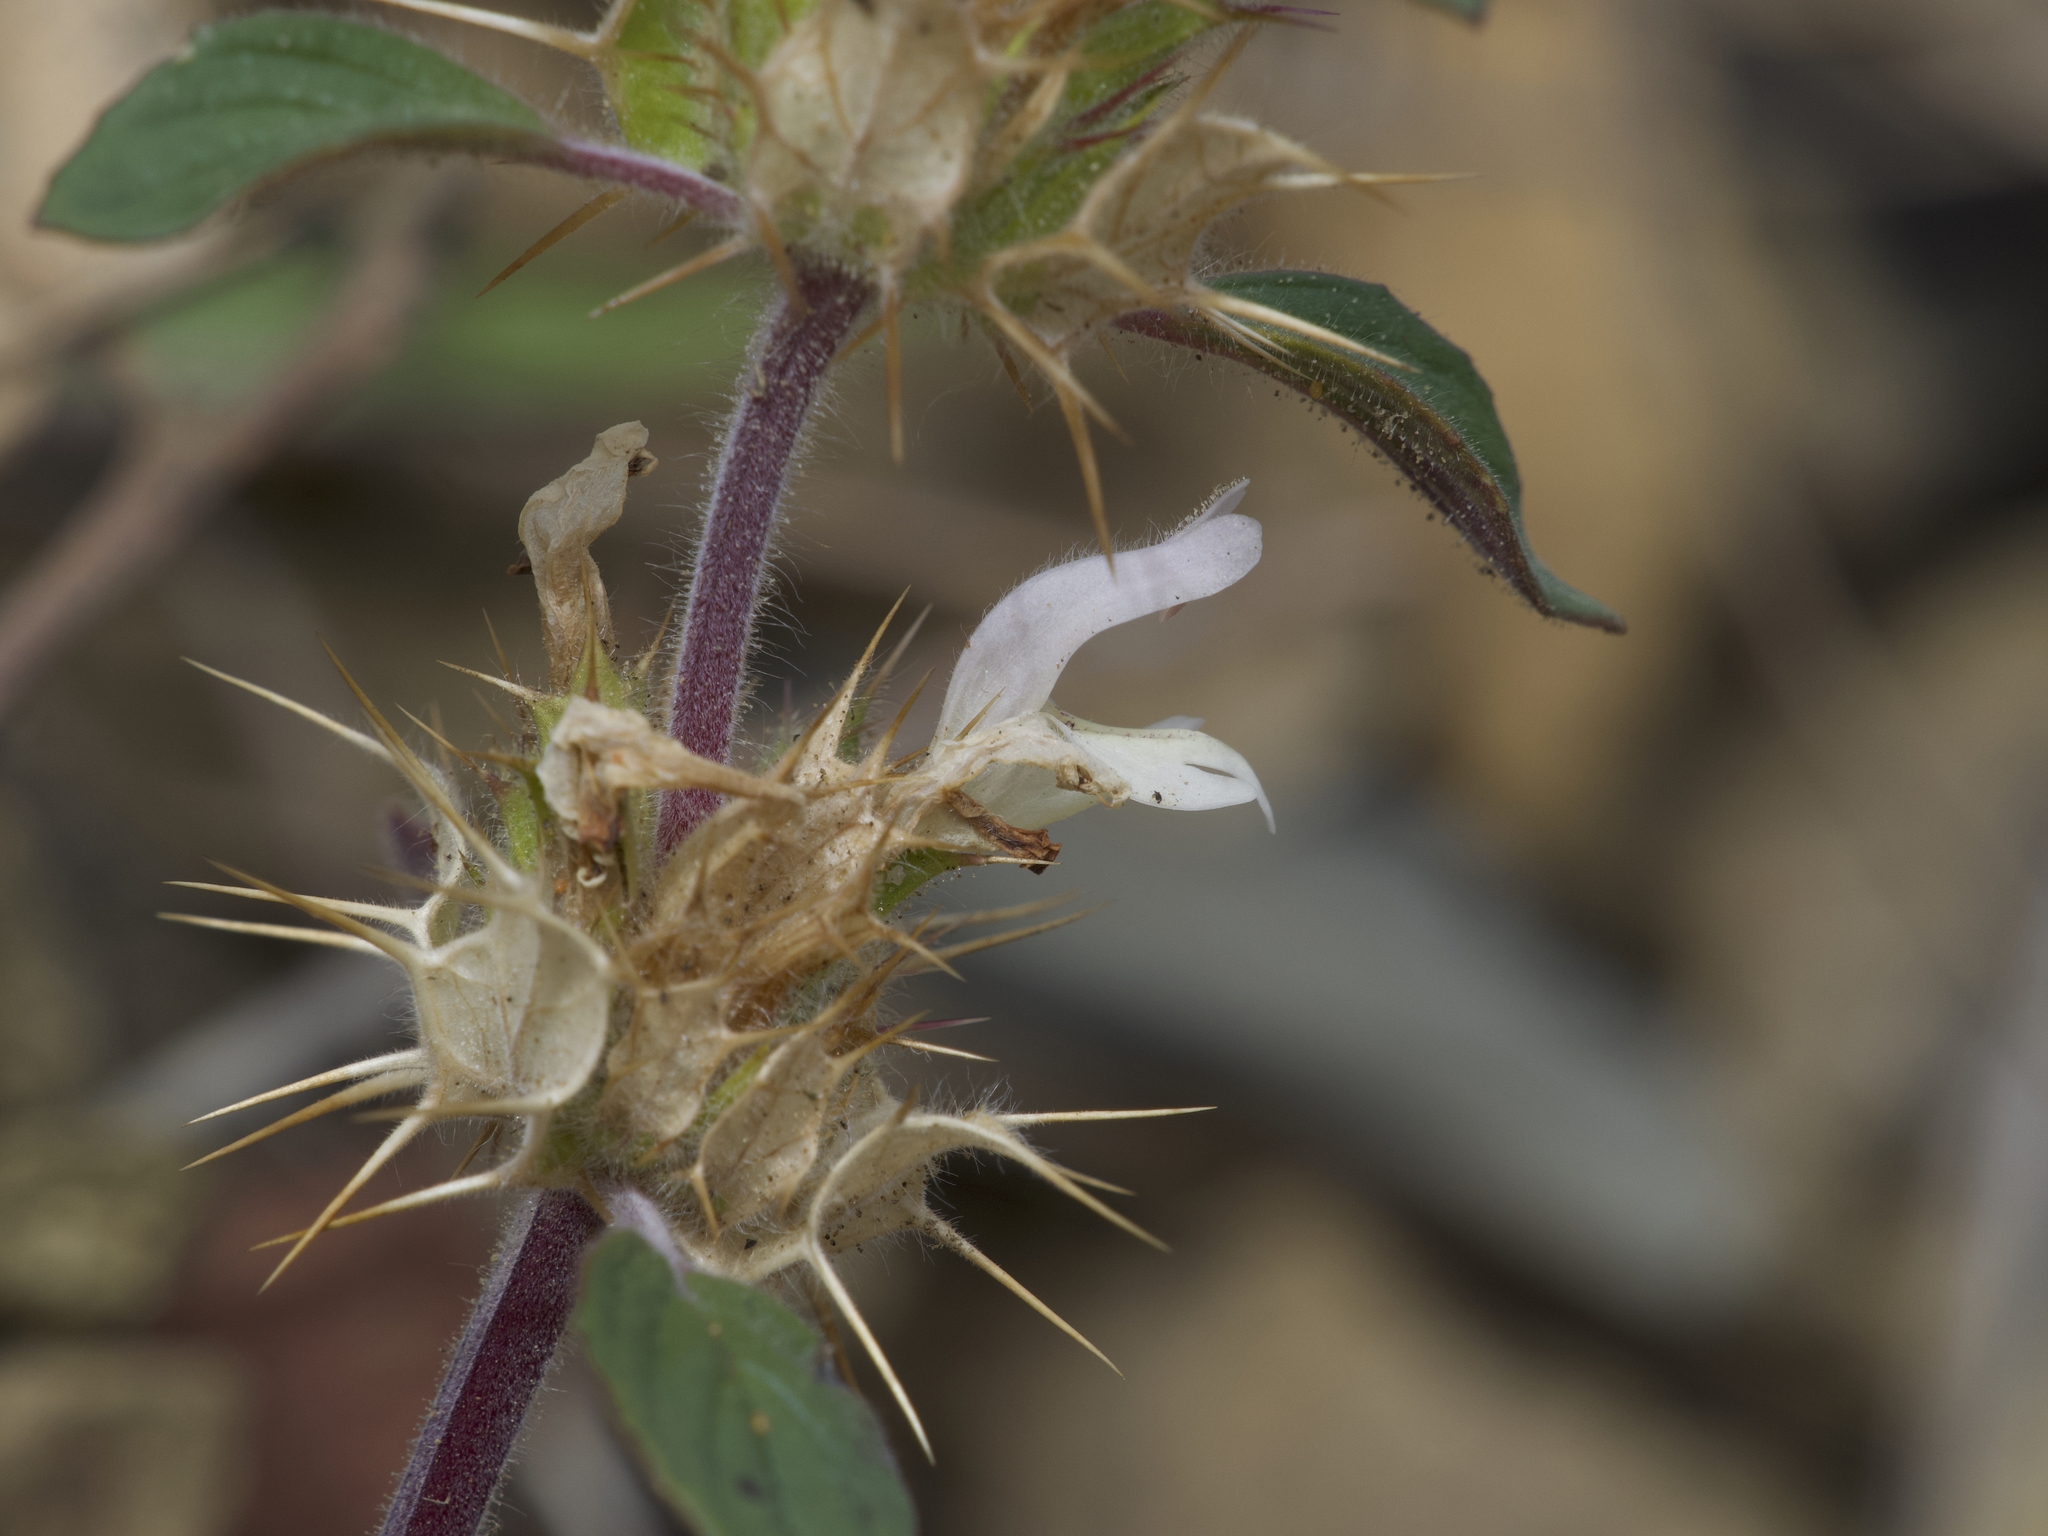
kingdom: Plantae
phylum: Tracheophyta
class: Magnoliopsida
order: Lamiales
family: Lamiaceae
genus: Acanthomintha
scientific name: Acanthomintha lanceolata
